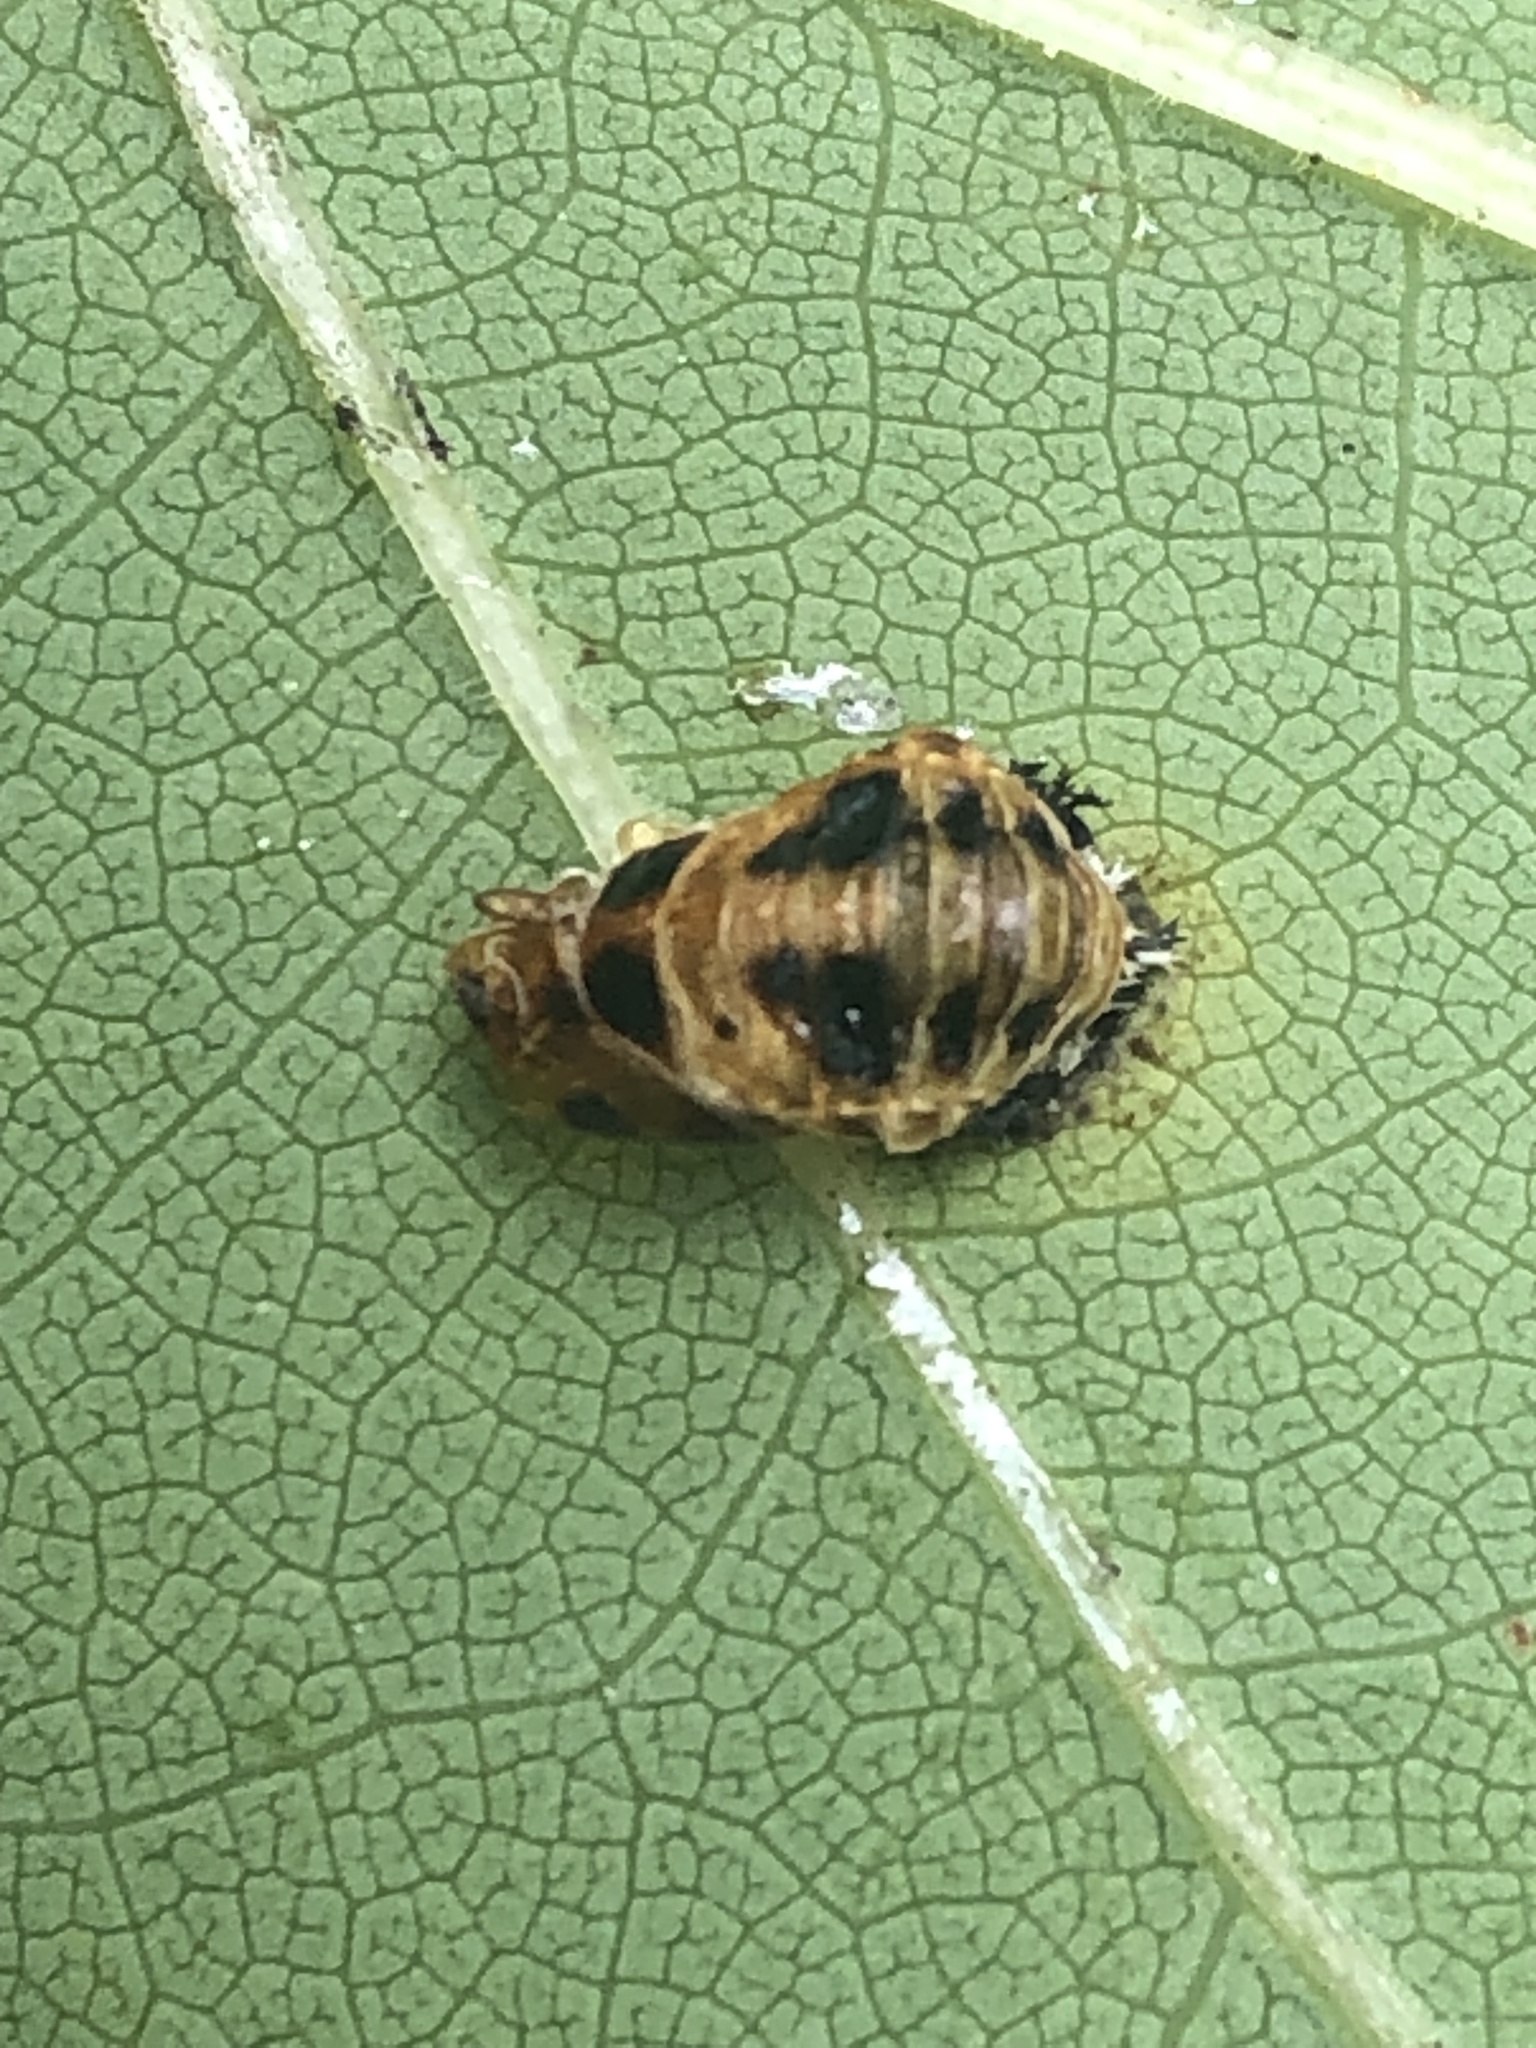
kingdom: Animalia
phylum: Arthropoda
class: Insecta
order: Coleoptera
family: Coccinellidae
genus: Harmonia
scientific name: Harmonia axyridis
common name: Harlequin ladybird
